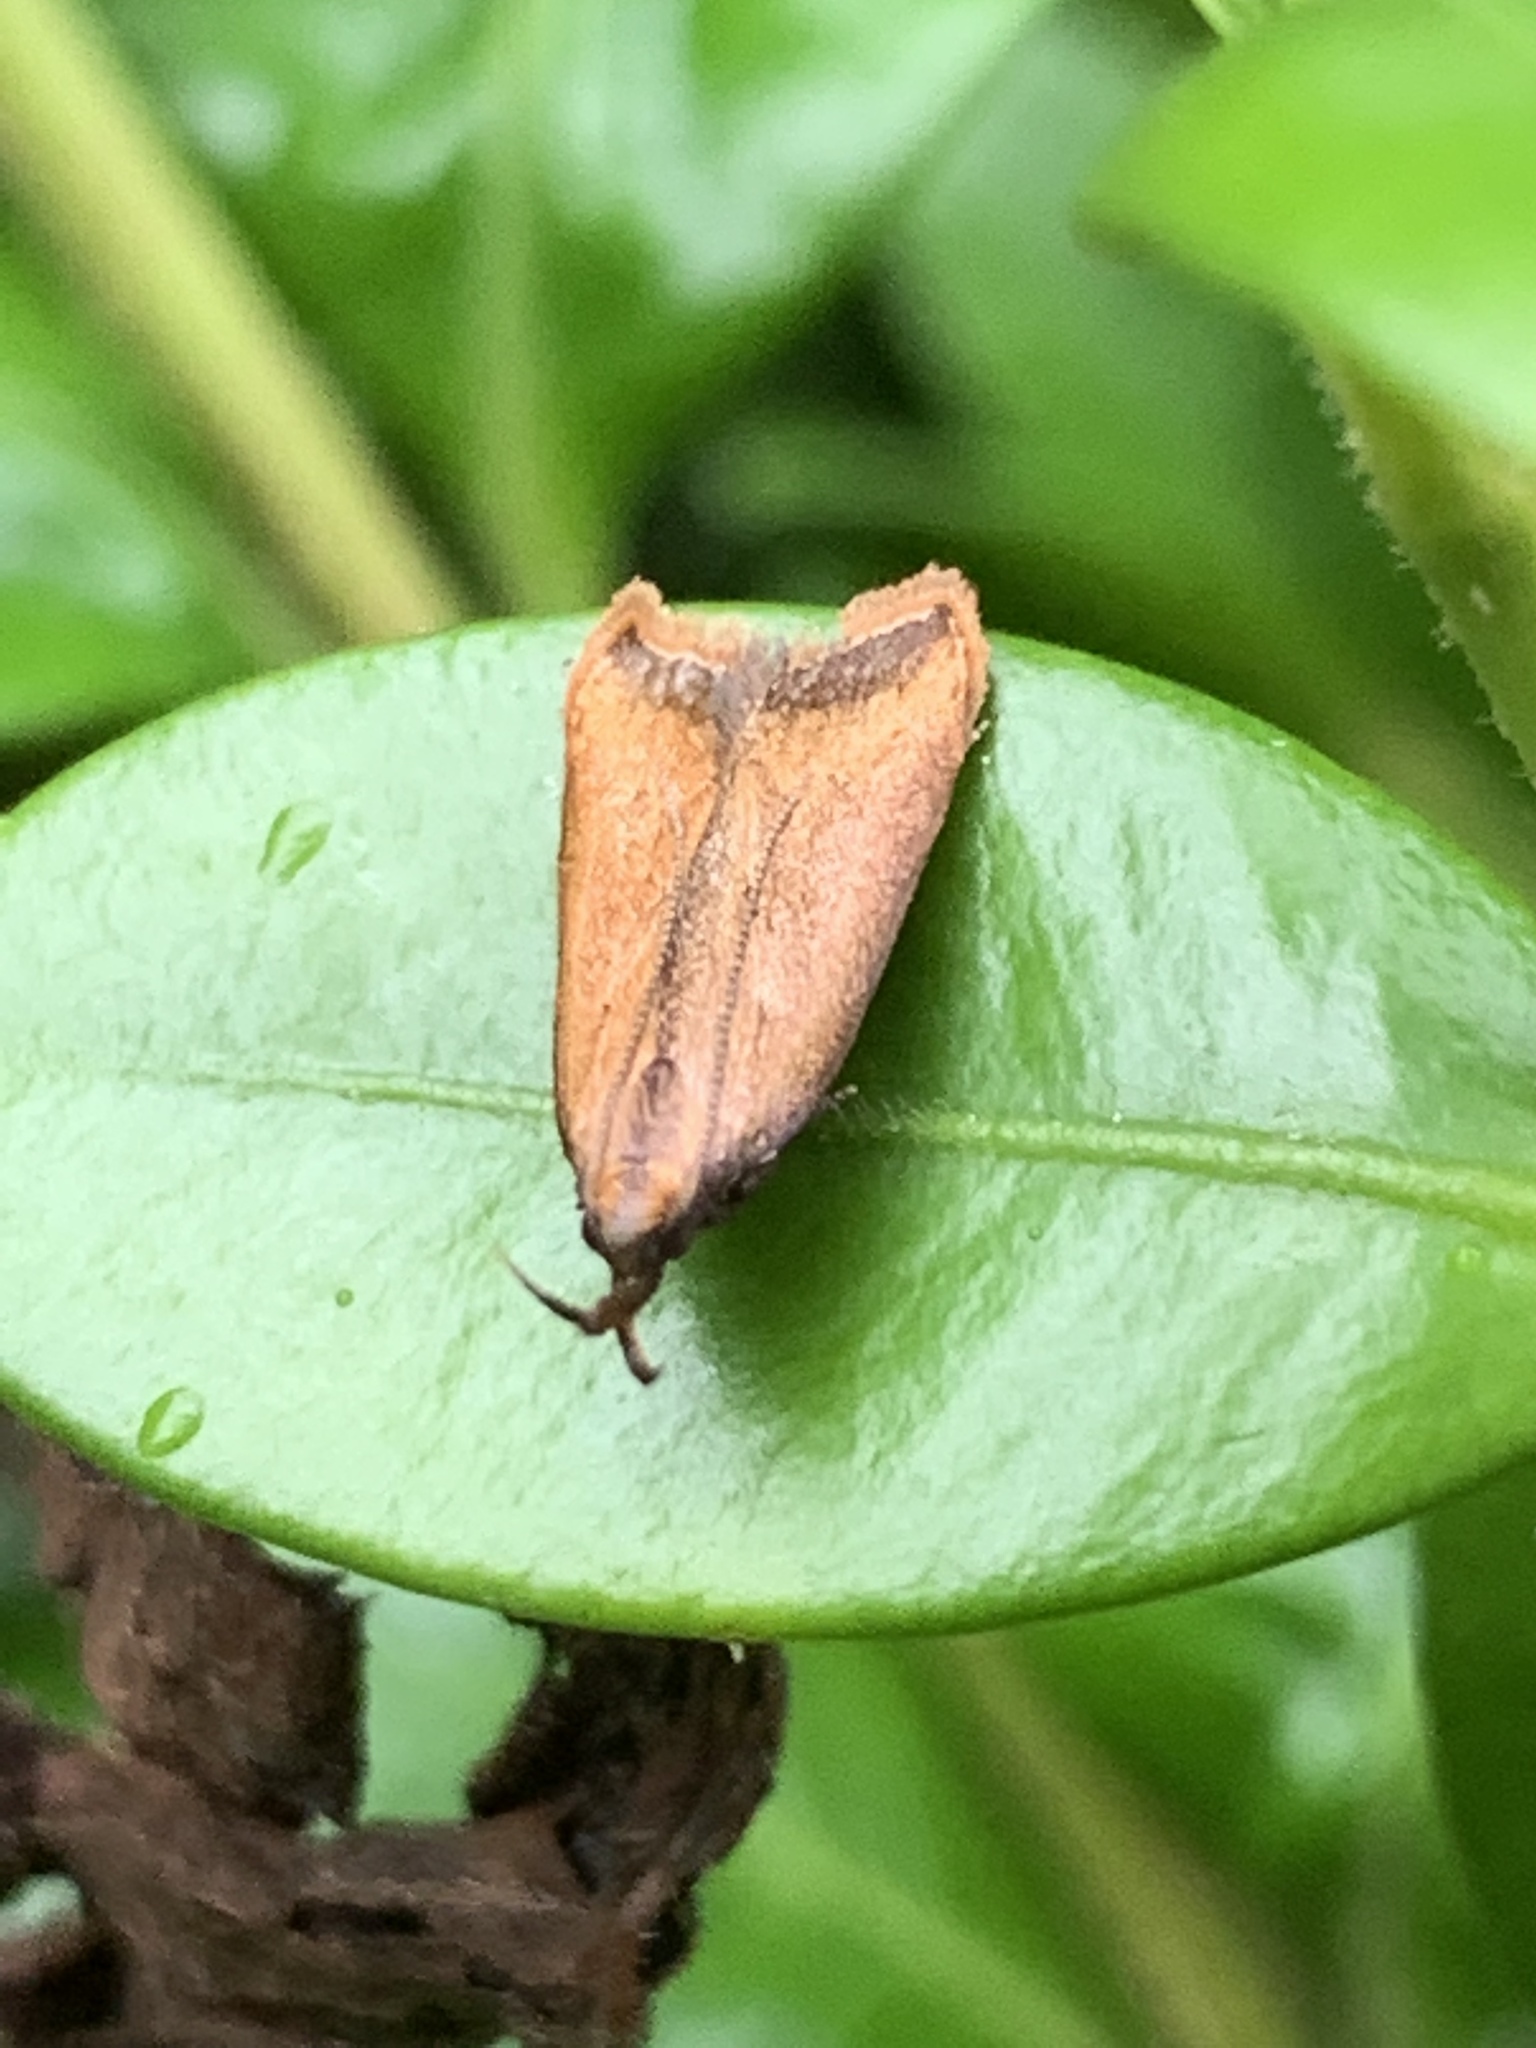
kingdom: Animalia
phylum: Arthropoda
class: Insecta
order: Lepidoptera
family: Gelechiidae
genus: Dichomeris
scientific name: Dichomeris heriguronis
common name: Black-edged dichomeris moth
